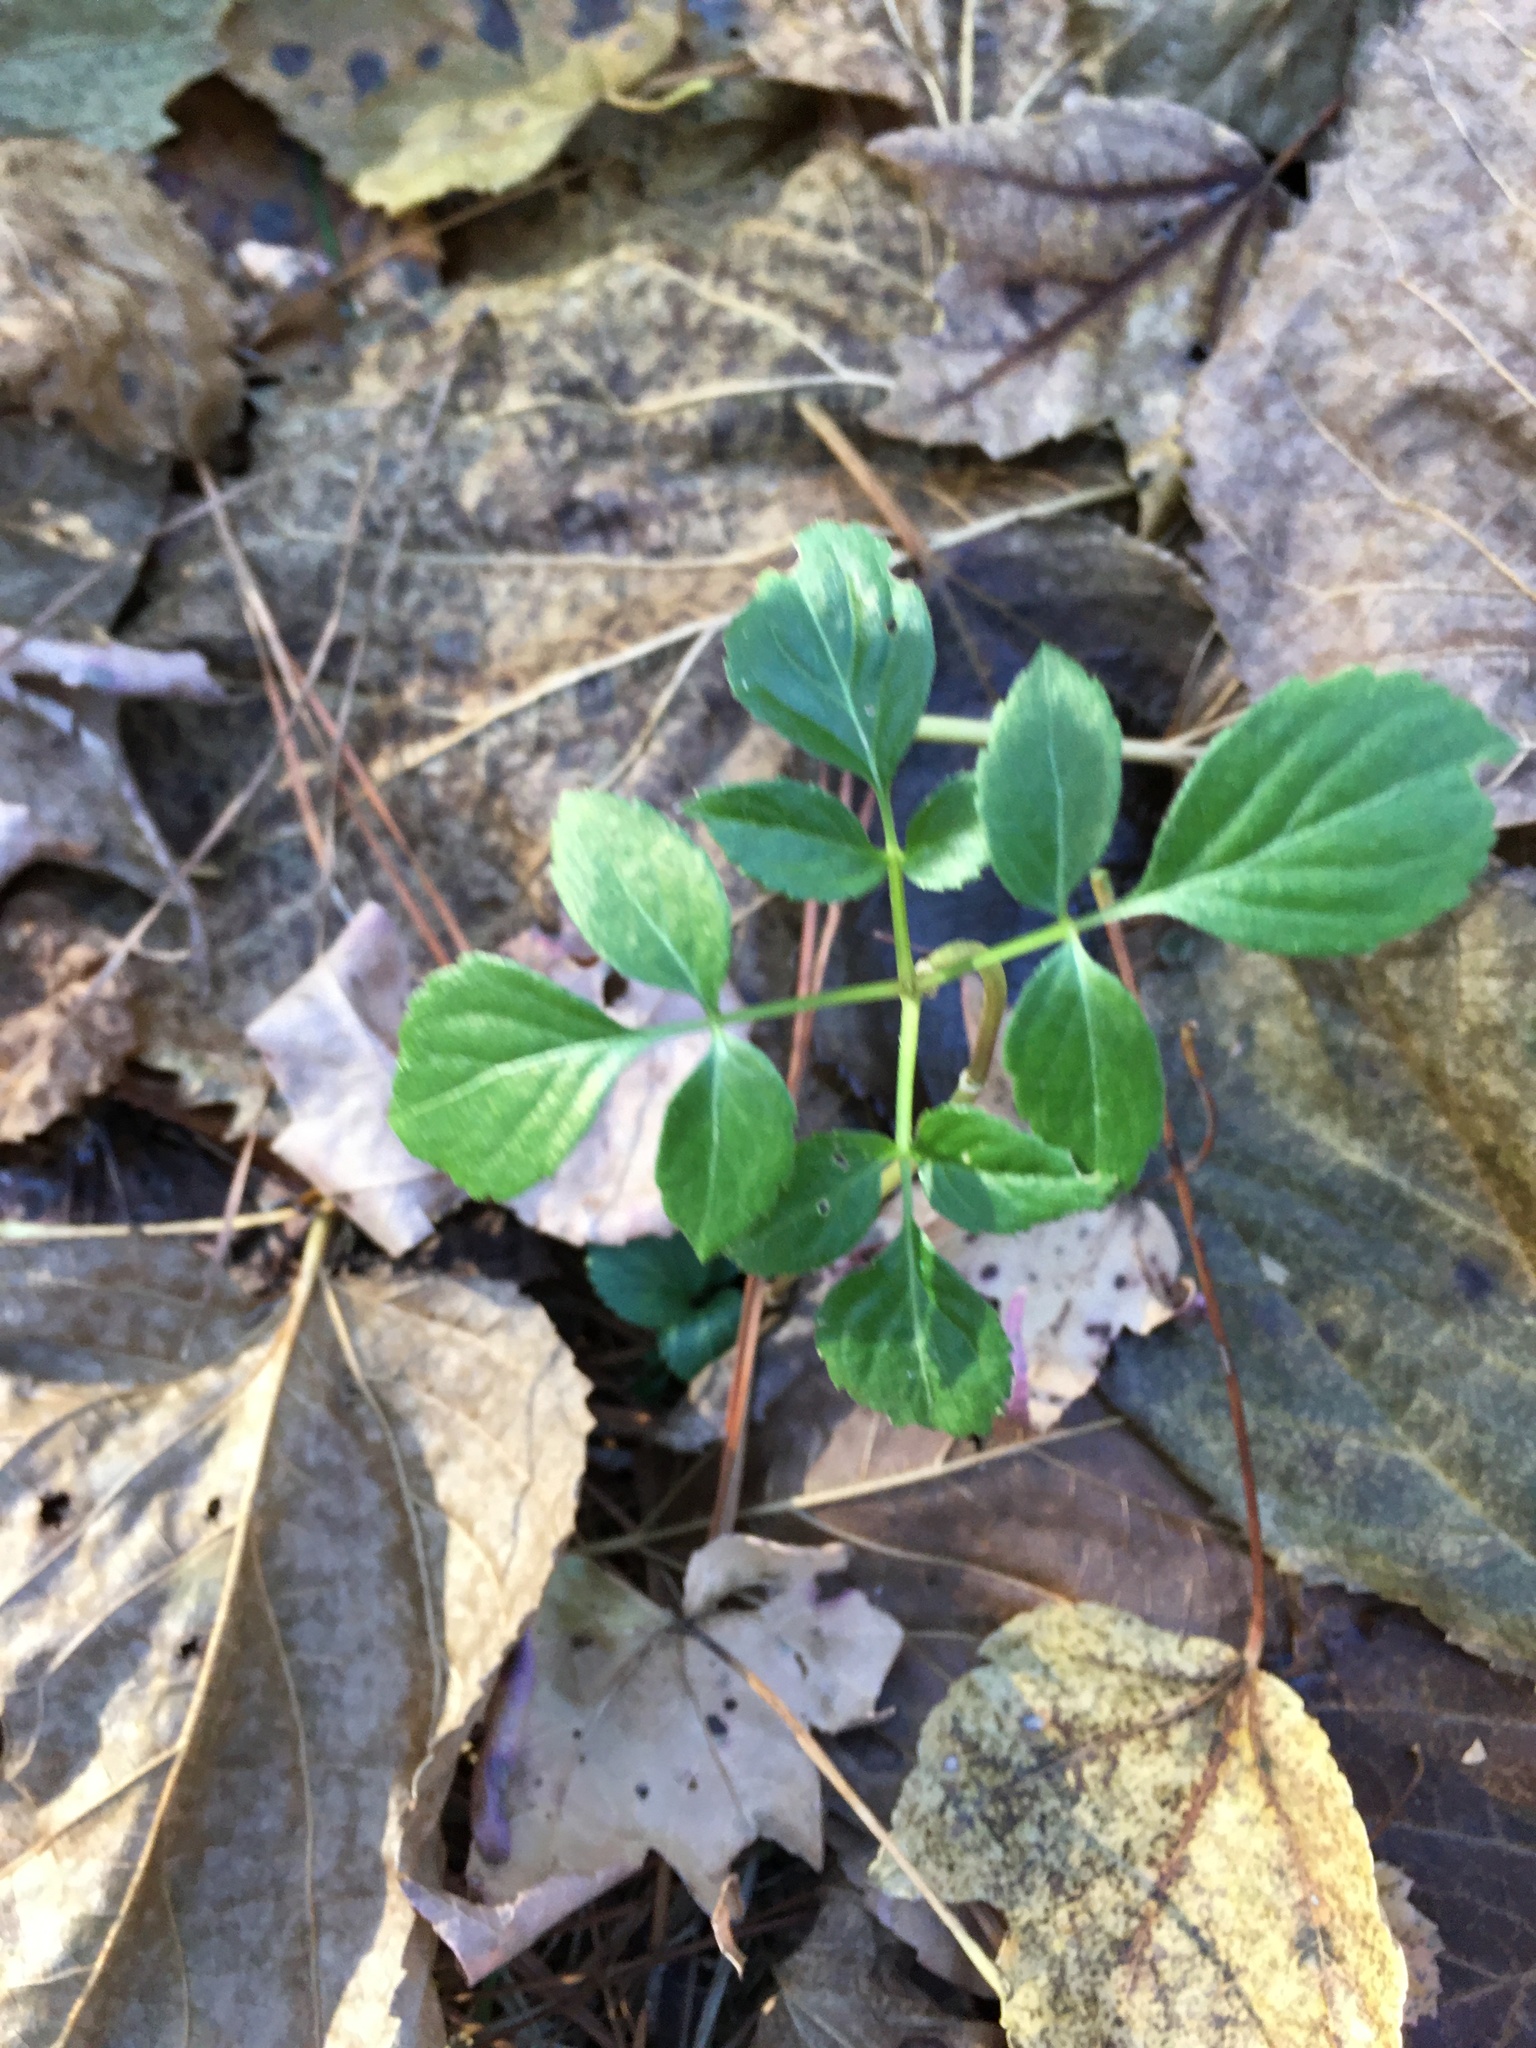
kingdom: Plantae
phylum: Tracheophyta
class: Magnoliopsida
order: Dipsacales
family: Viburnaceae
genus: Sambucus
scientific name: Sambucus canadensis
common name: American elder
